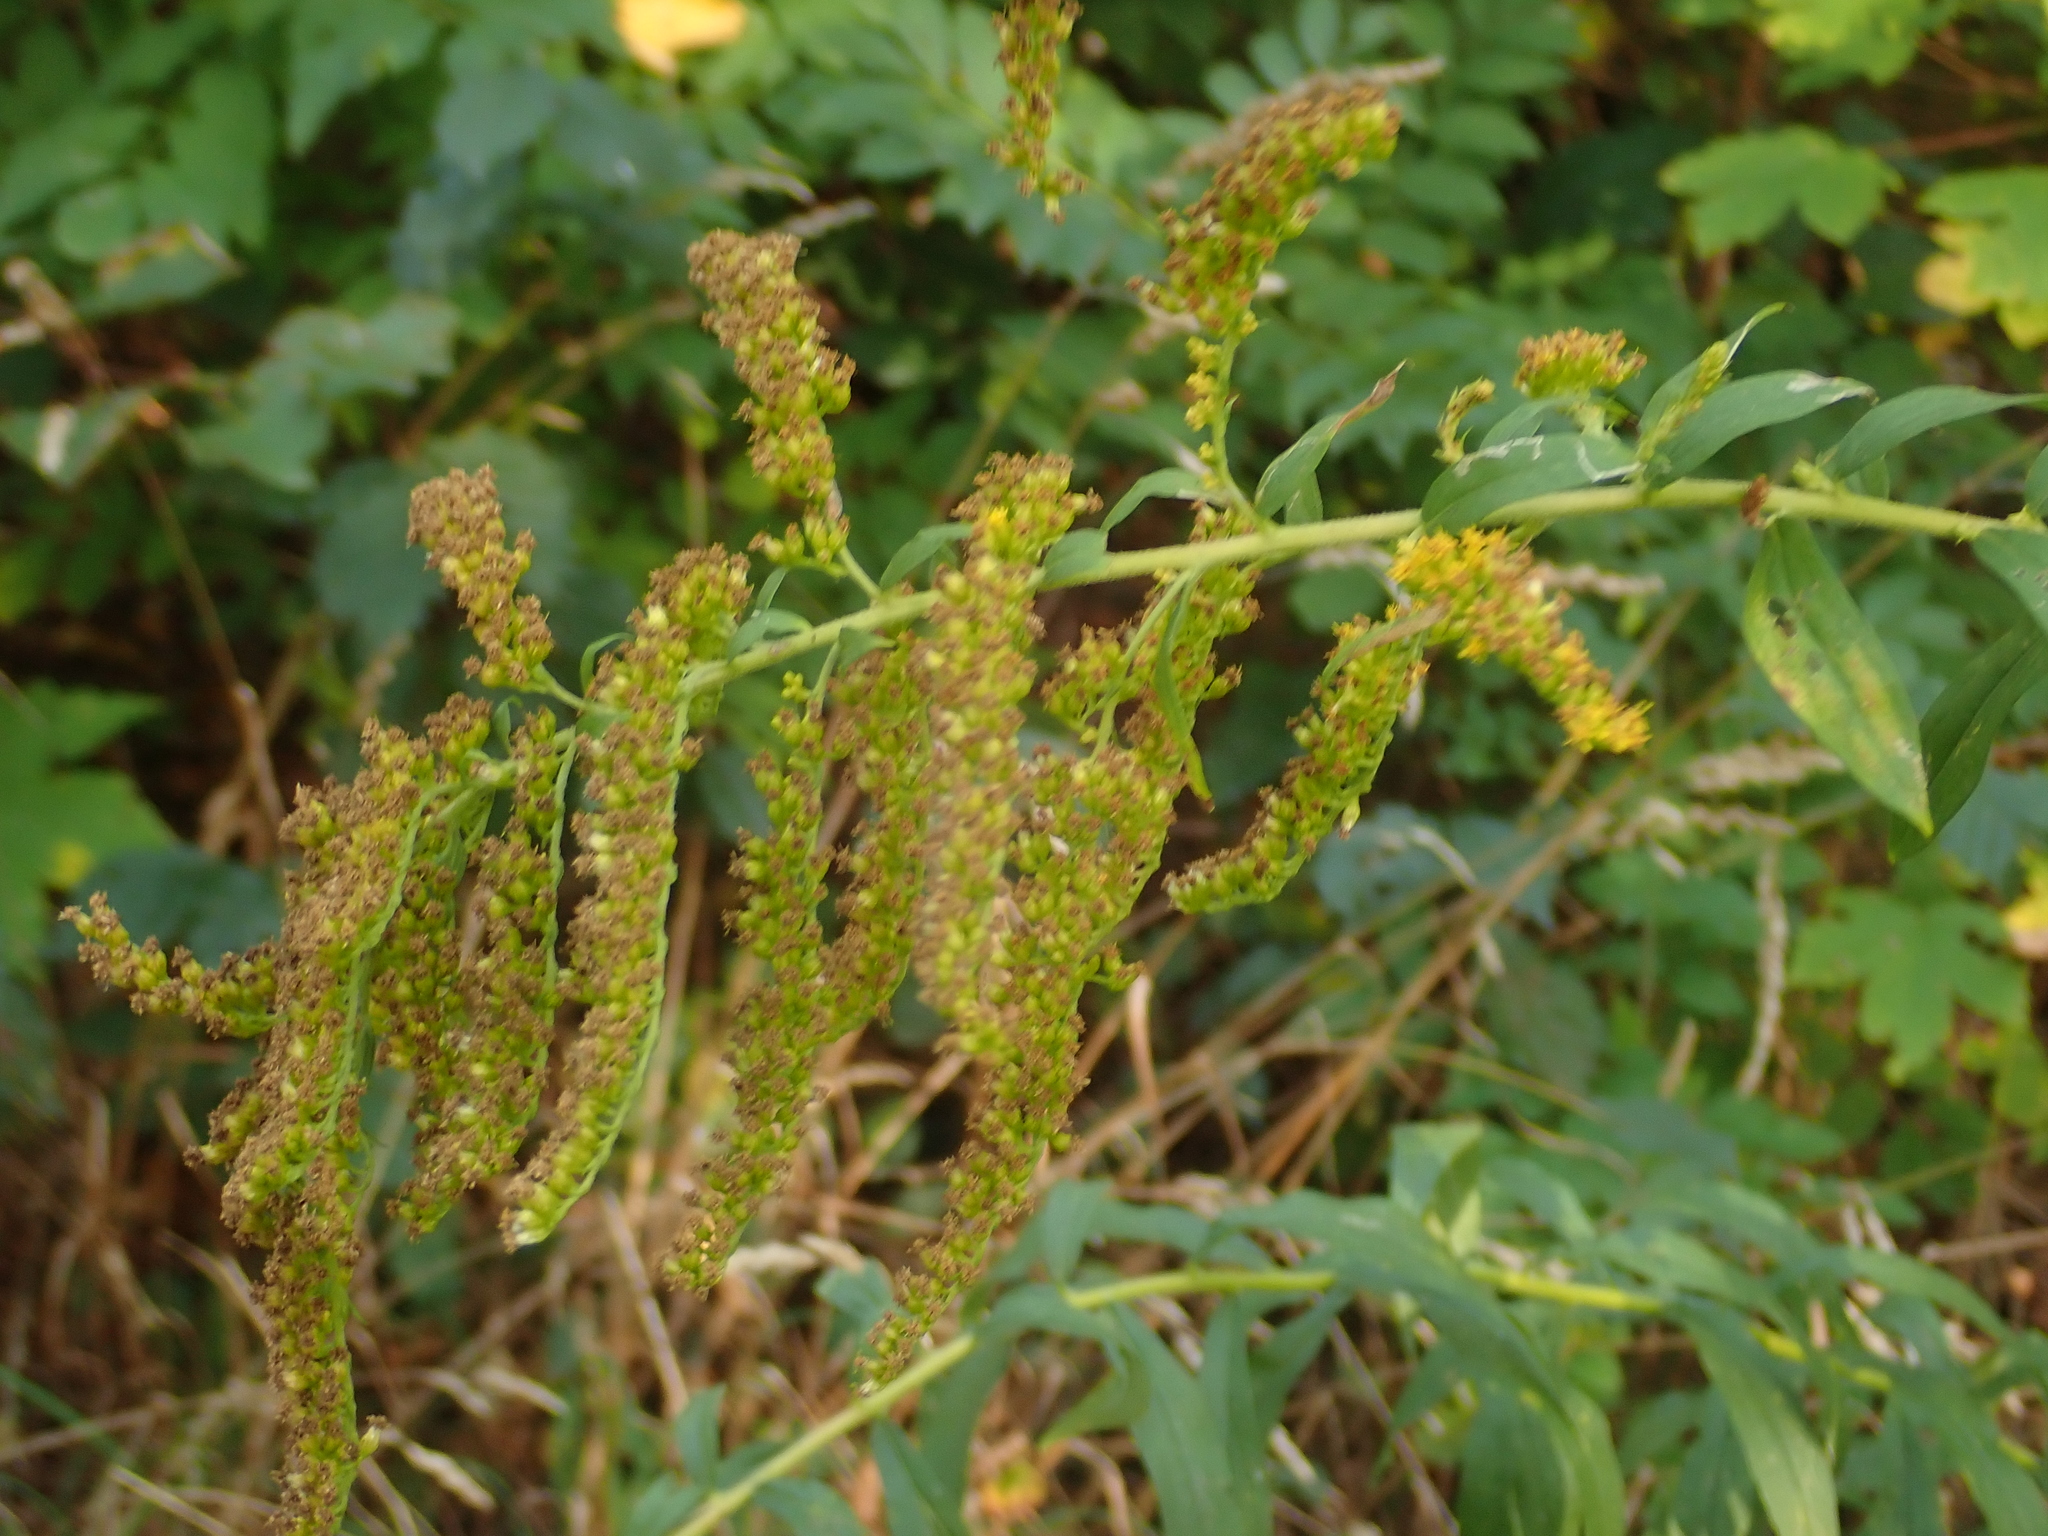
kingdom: Plantae
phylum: Tracheophyta
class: Magnoliopsida
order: Asterales
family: Asteraceae
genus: Solidago
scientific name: Solidago canadensis
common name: Canada goldenrod
